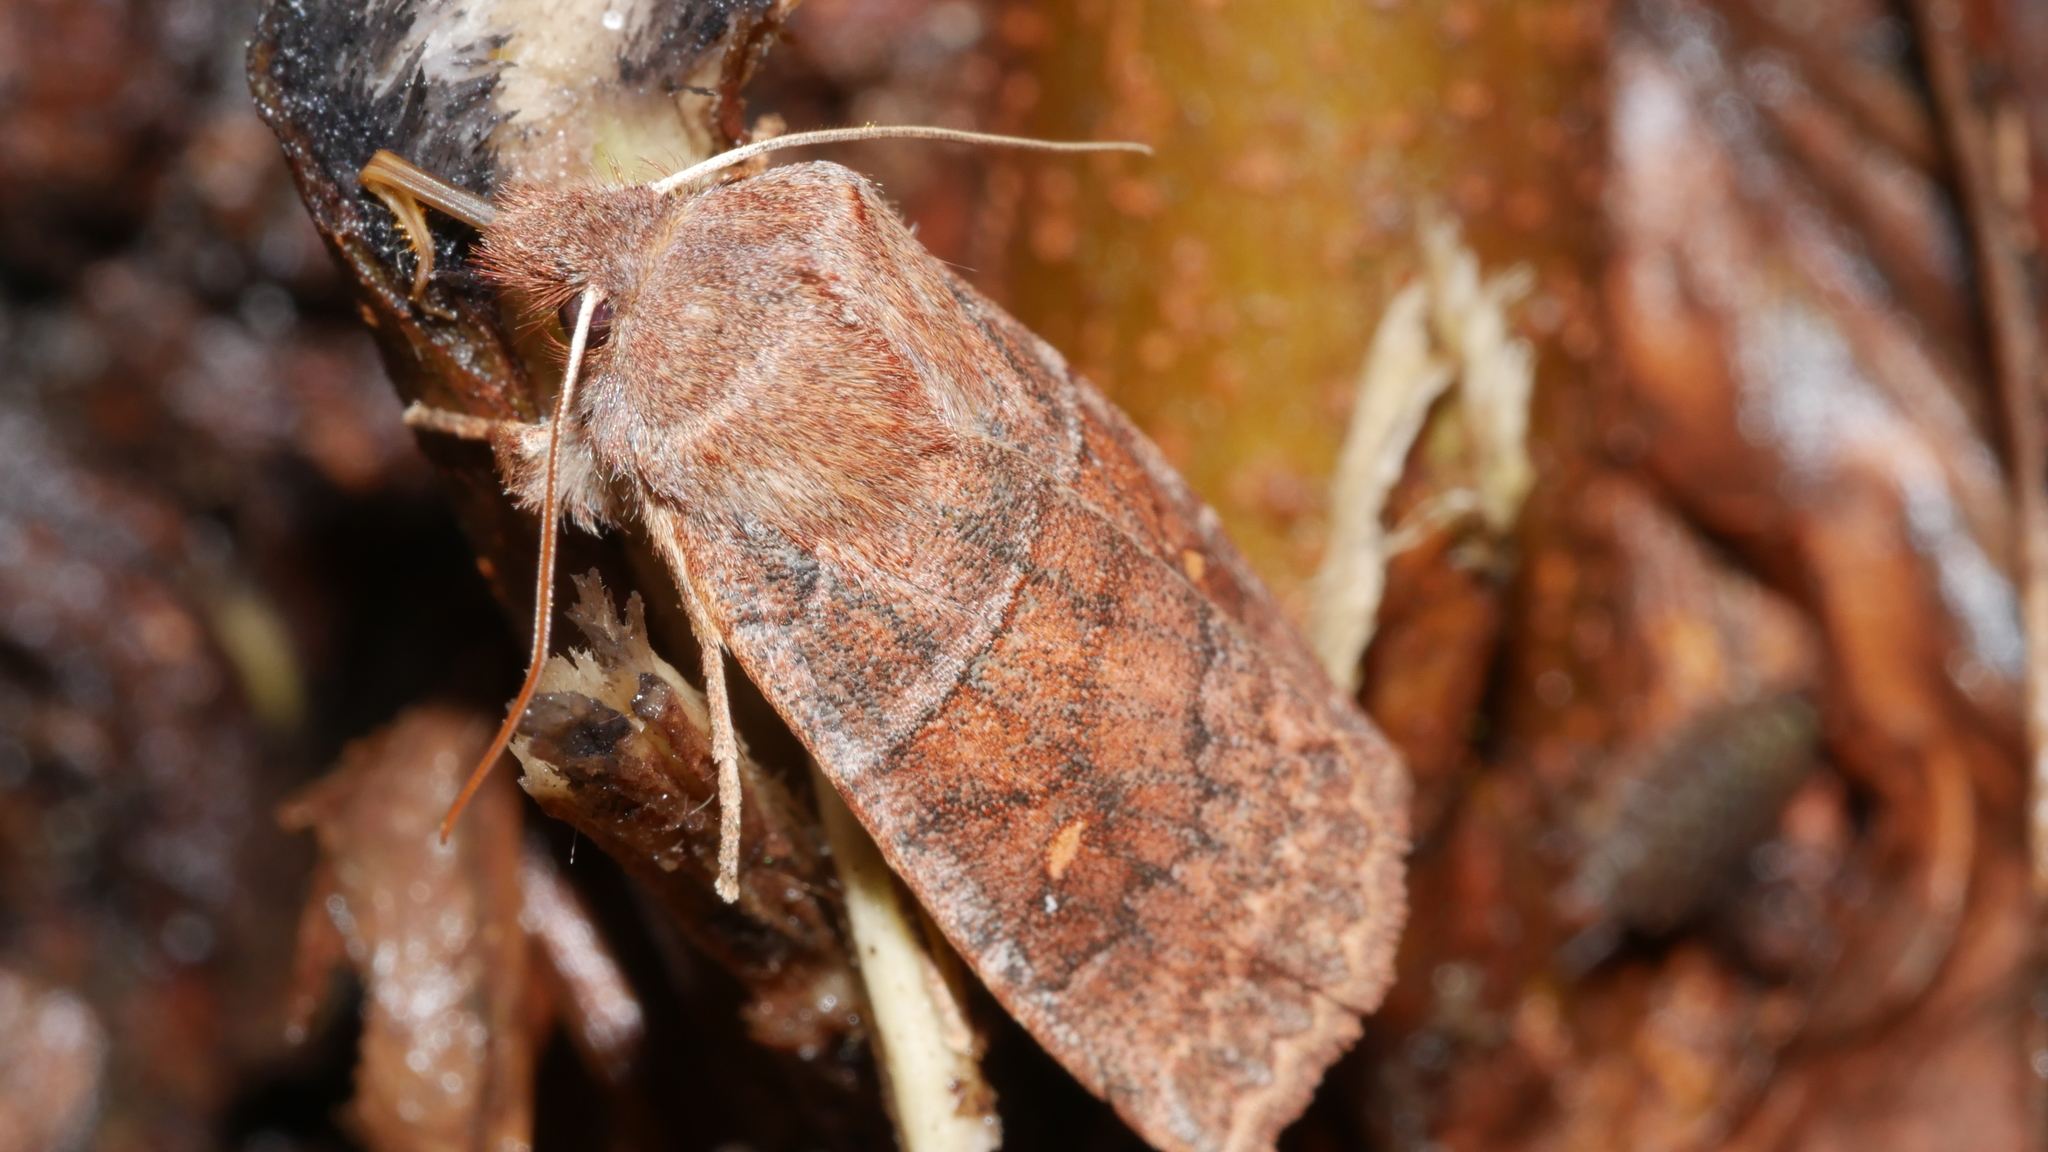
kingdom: Animalia
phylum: Arthropoda
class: Insecta
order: Lepidoptera
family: Noctuidae
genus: Eupsilia
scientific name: Eupsilia vinulenta
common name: Straight-toothed sallow
